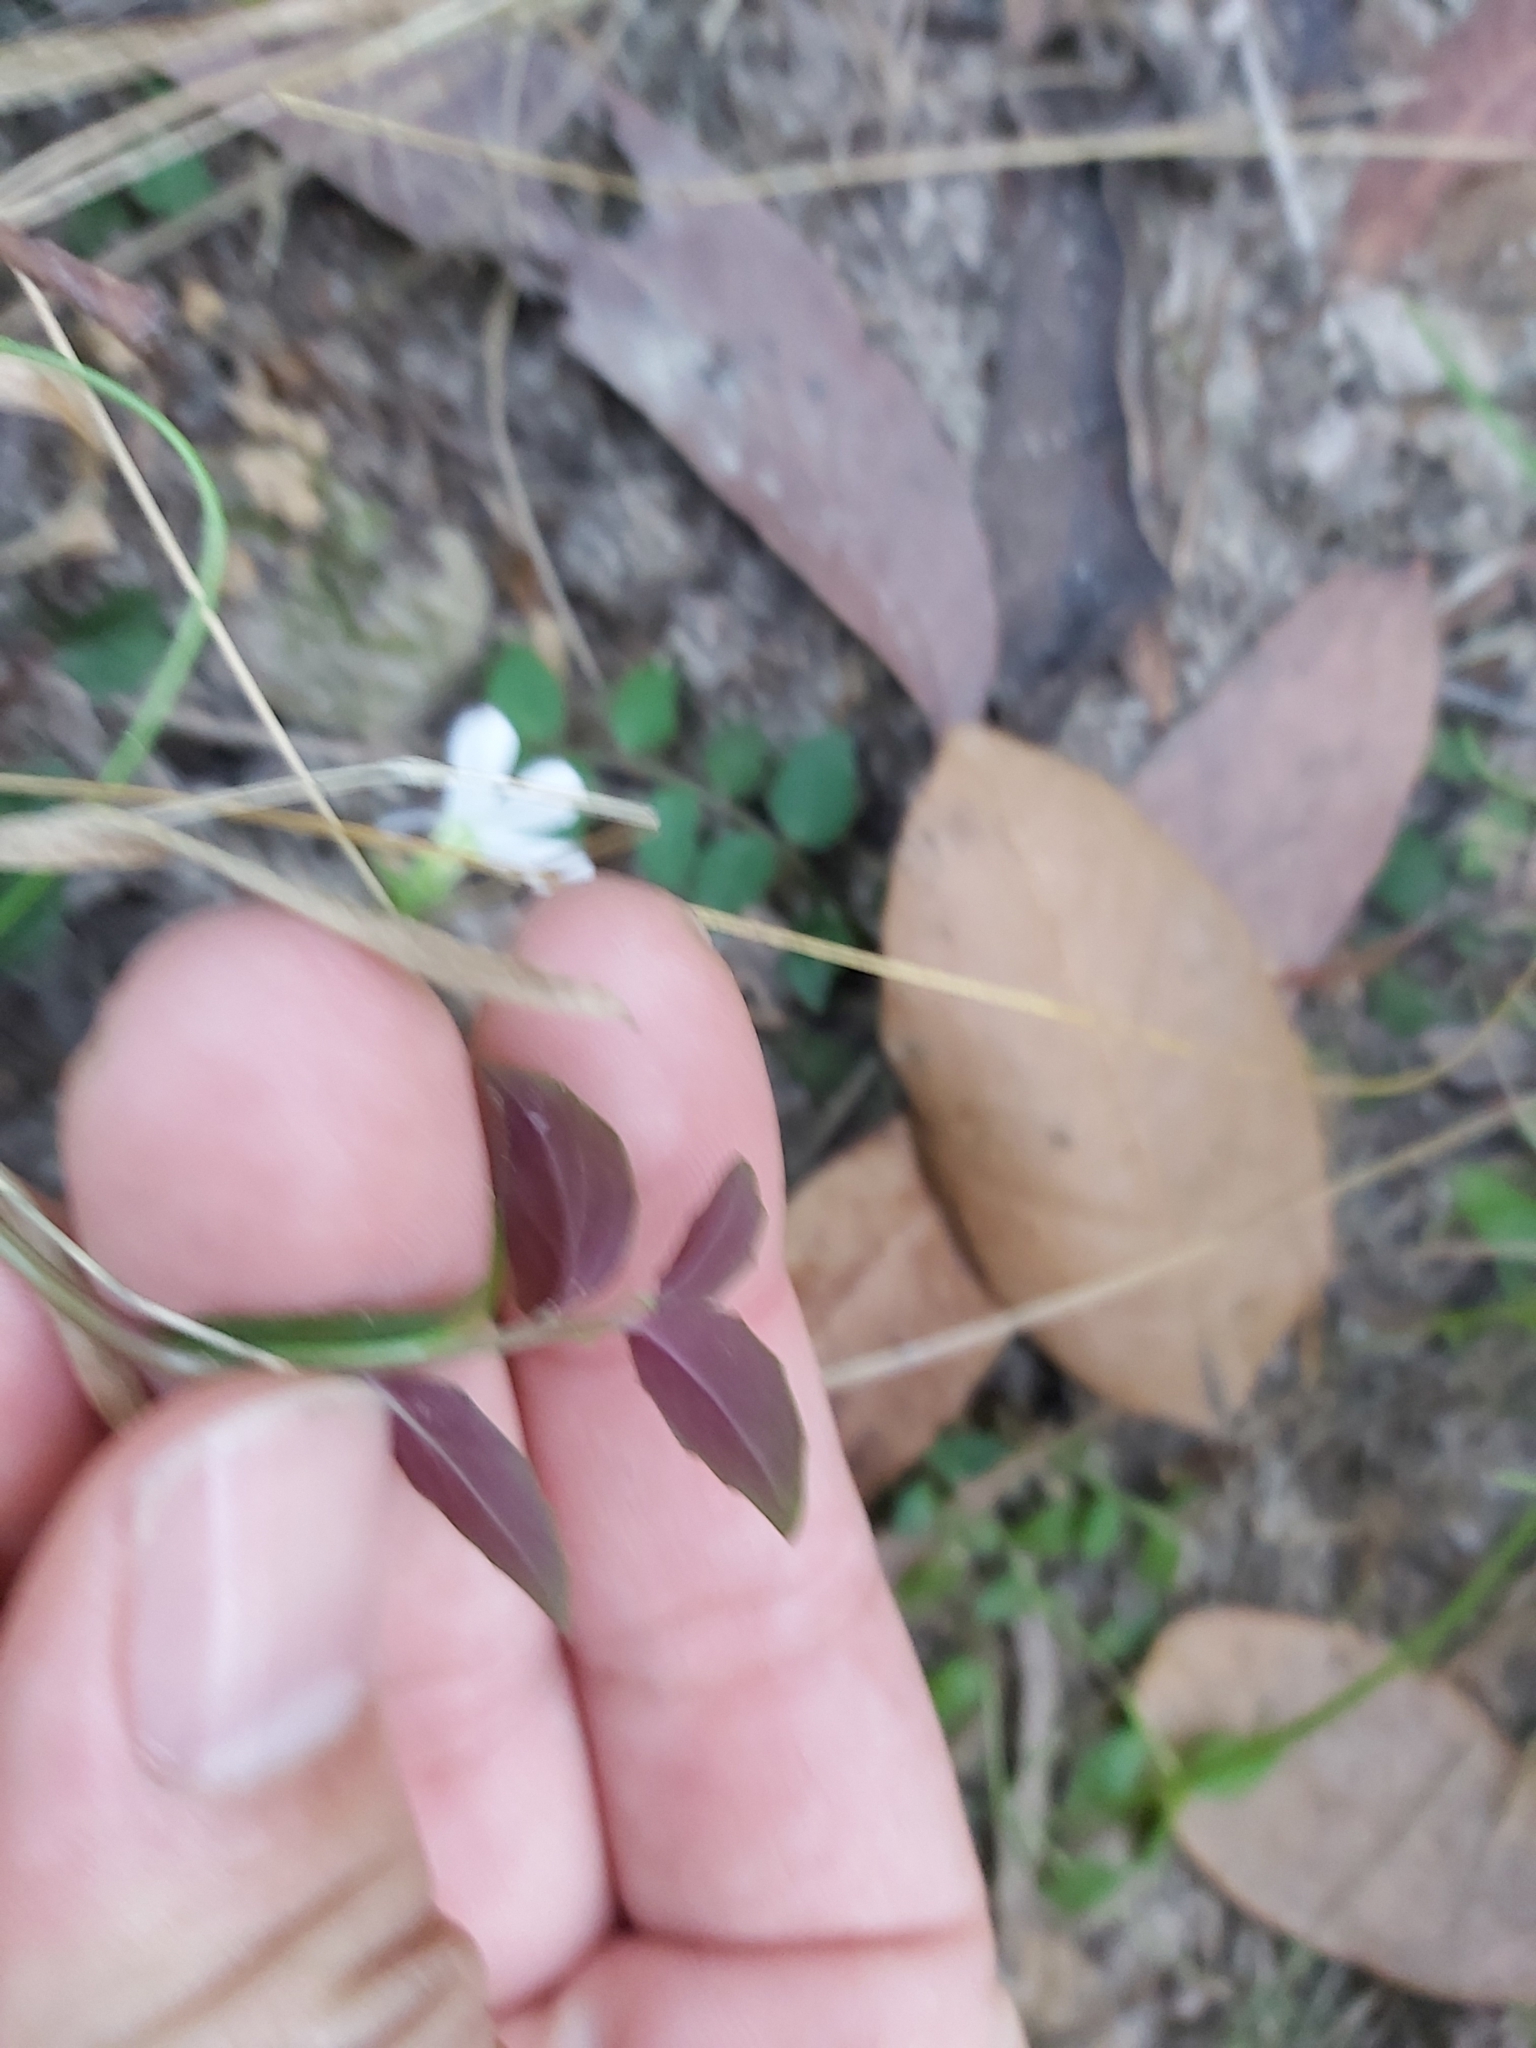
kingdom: Plantae
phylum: Tracheophyta
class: Magnoliopsida
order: Asterales
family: Campanulaceae
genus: Lobelia
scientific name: Lobelia purpurascens
